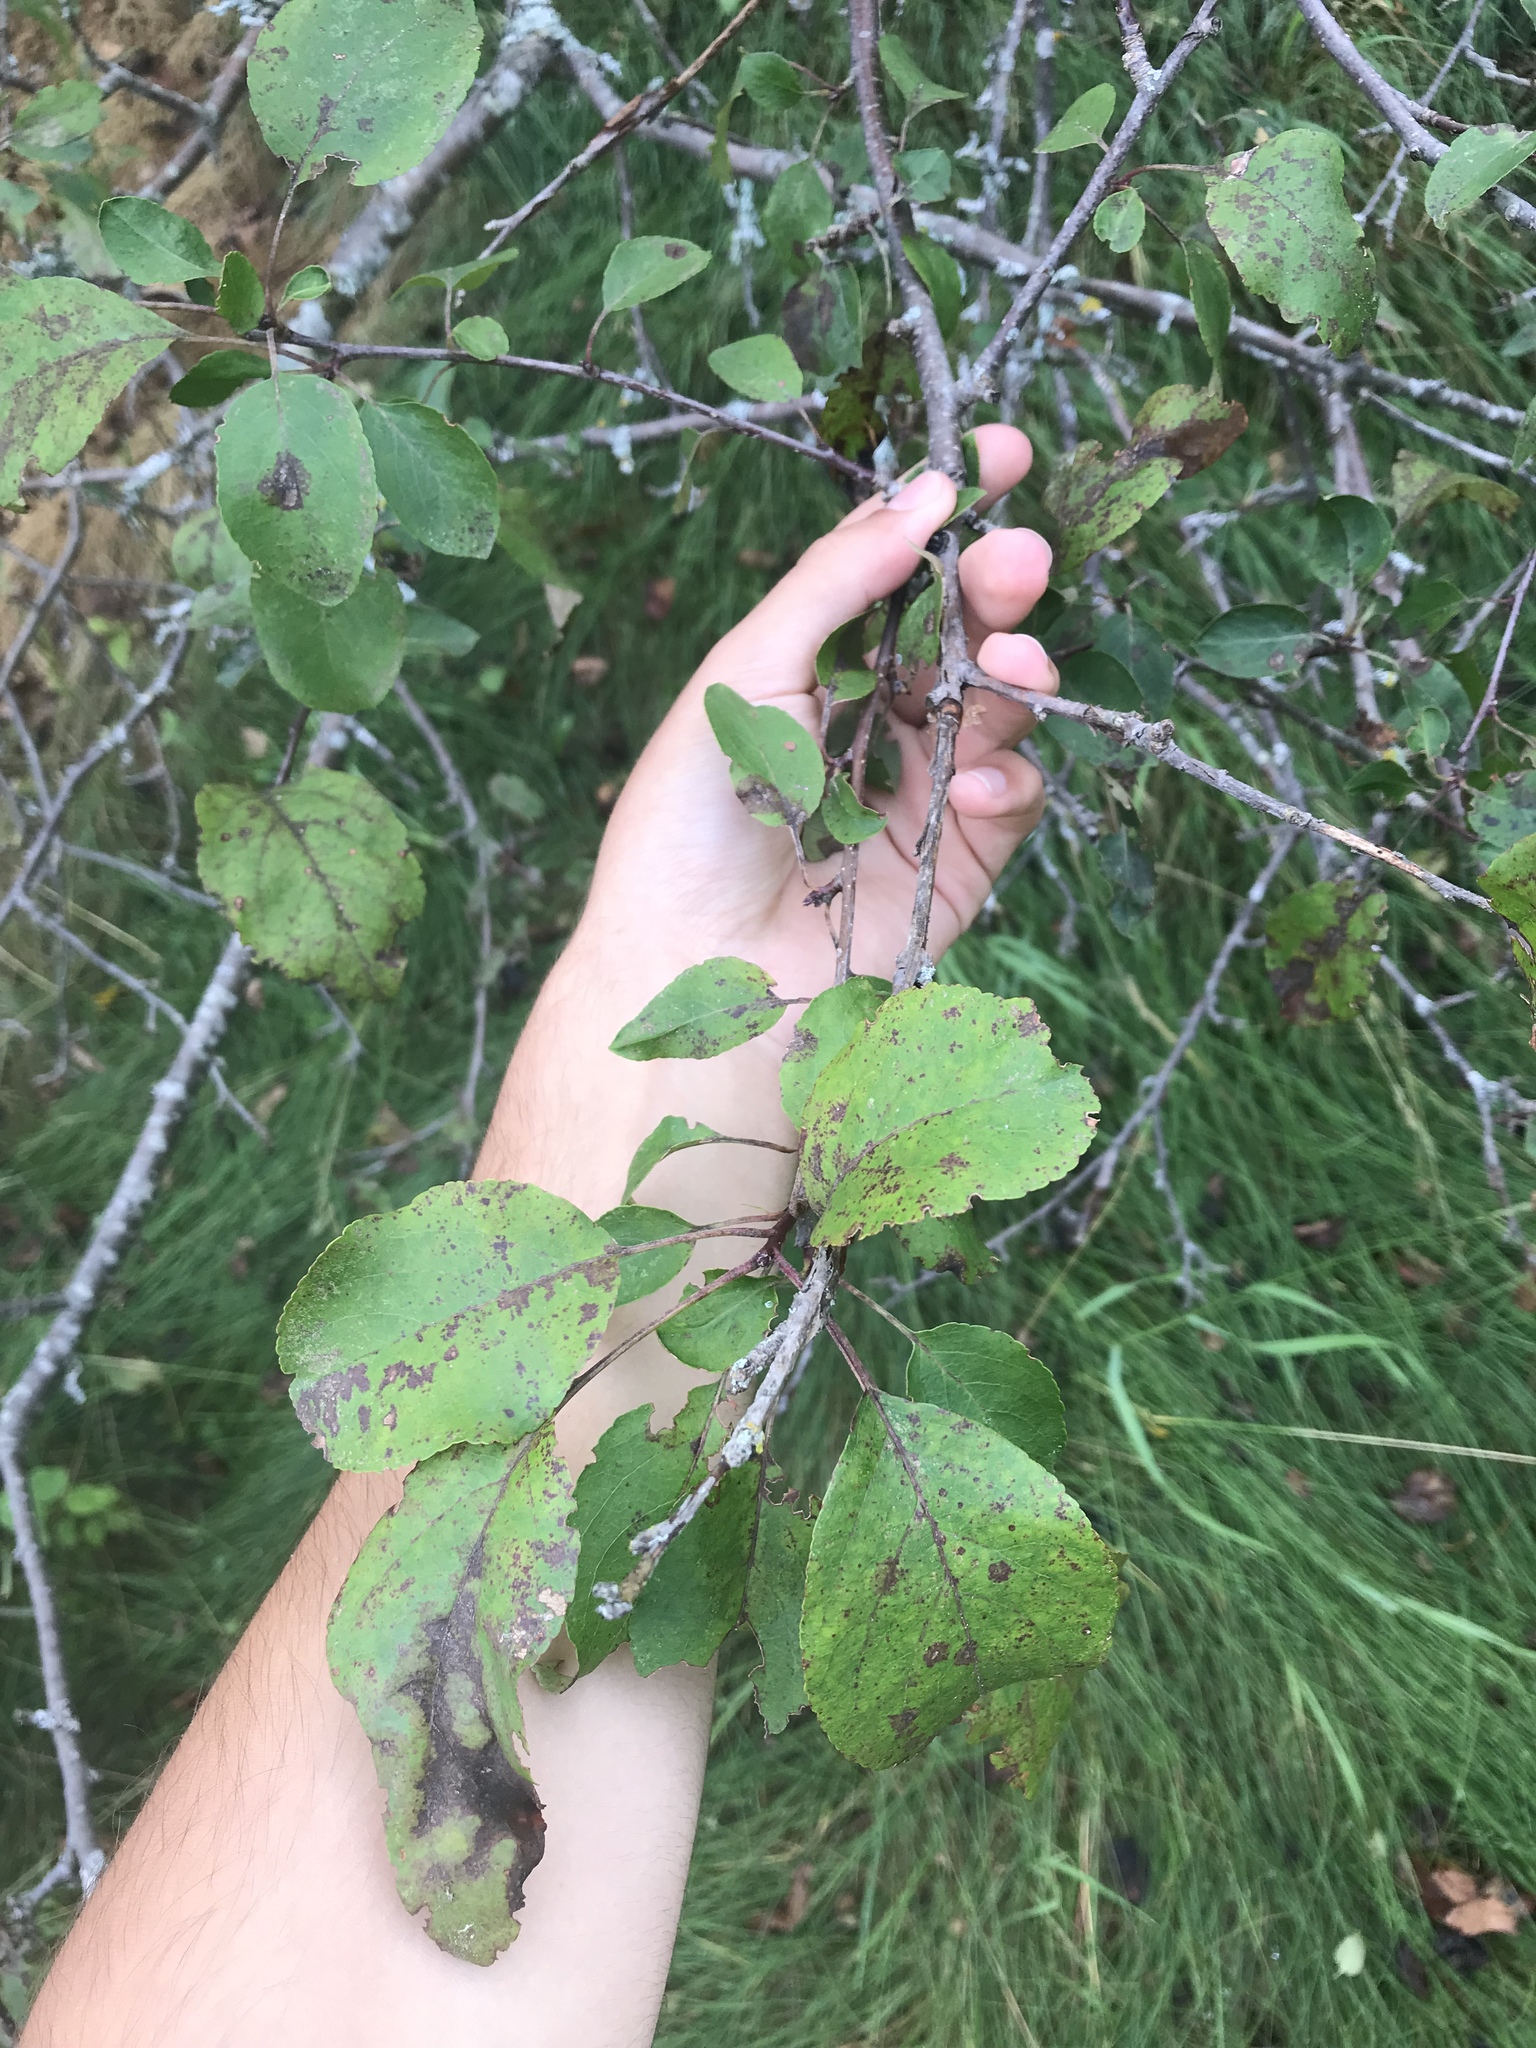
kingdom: Plantae
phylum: Tracheophyta
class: Magnoliopsida
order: Rosales
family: Rosaceae
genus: Malus
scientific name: Malus domestica
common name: Apple
